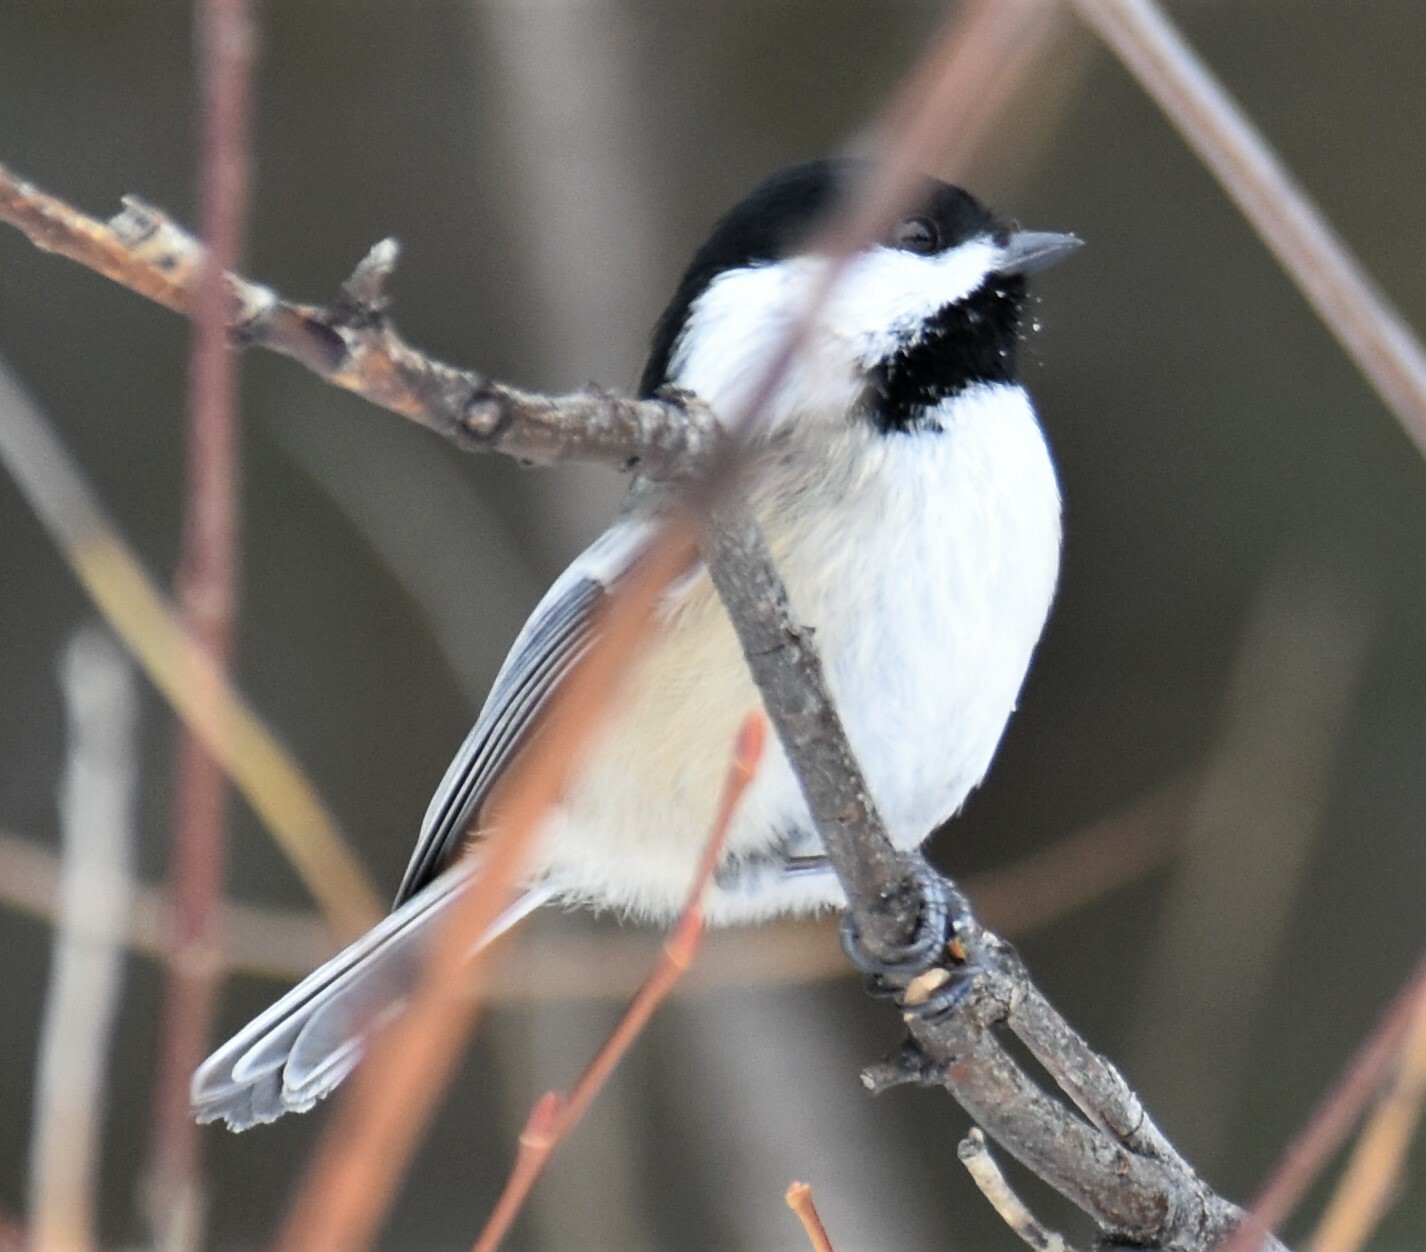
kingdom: Animalia
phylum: Chordata
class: Aves
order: Passeriformes
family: Paridae
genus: Poecile
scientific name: Poecile atricapillus
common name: Black-capped chickadee
